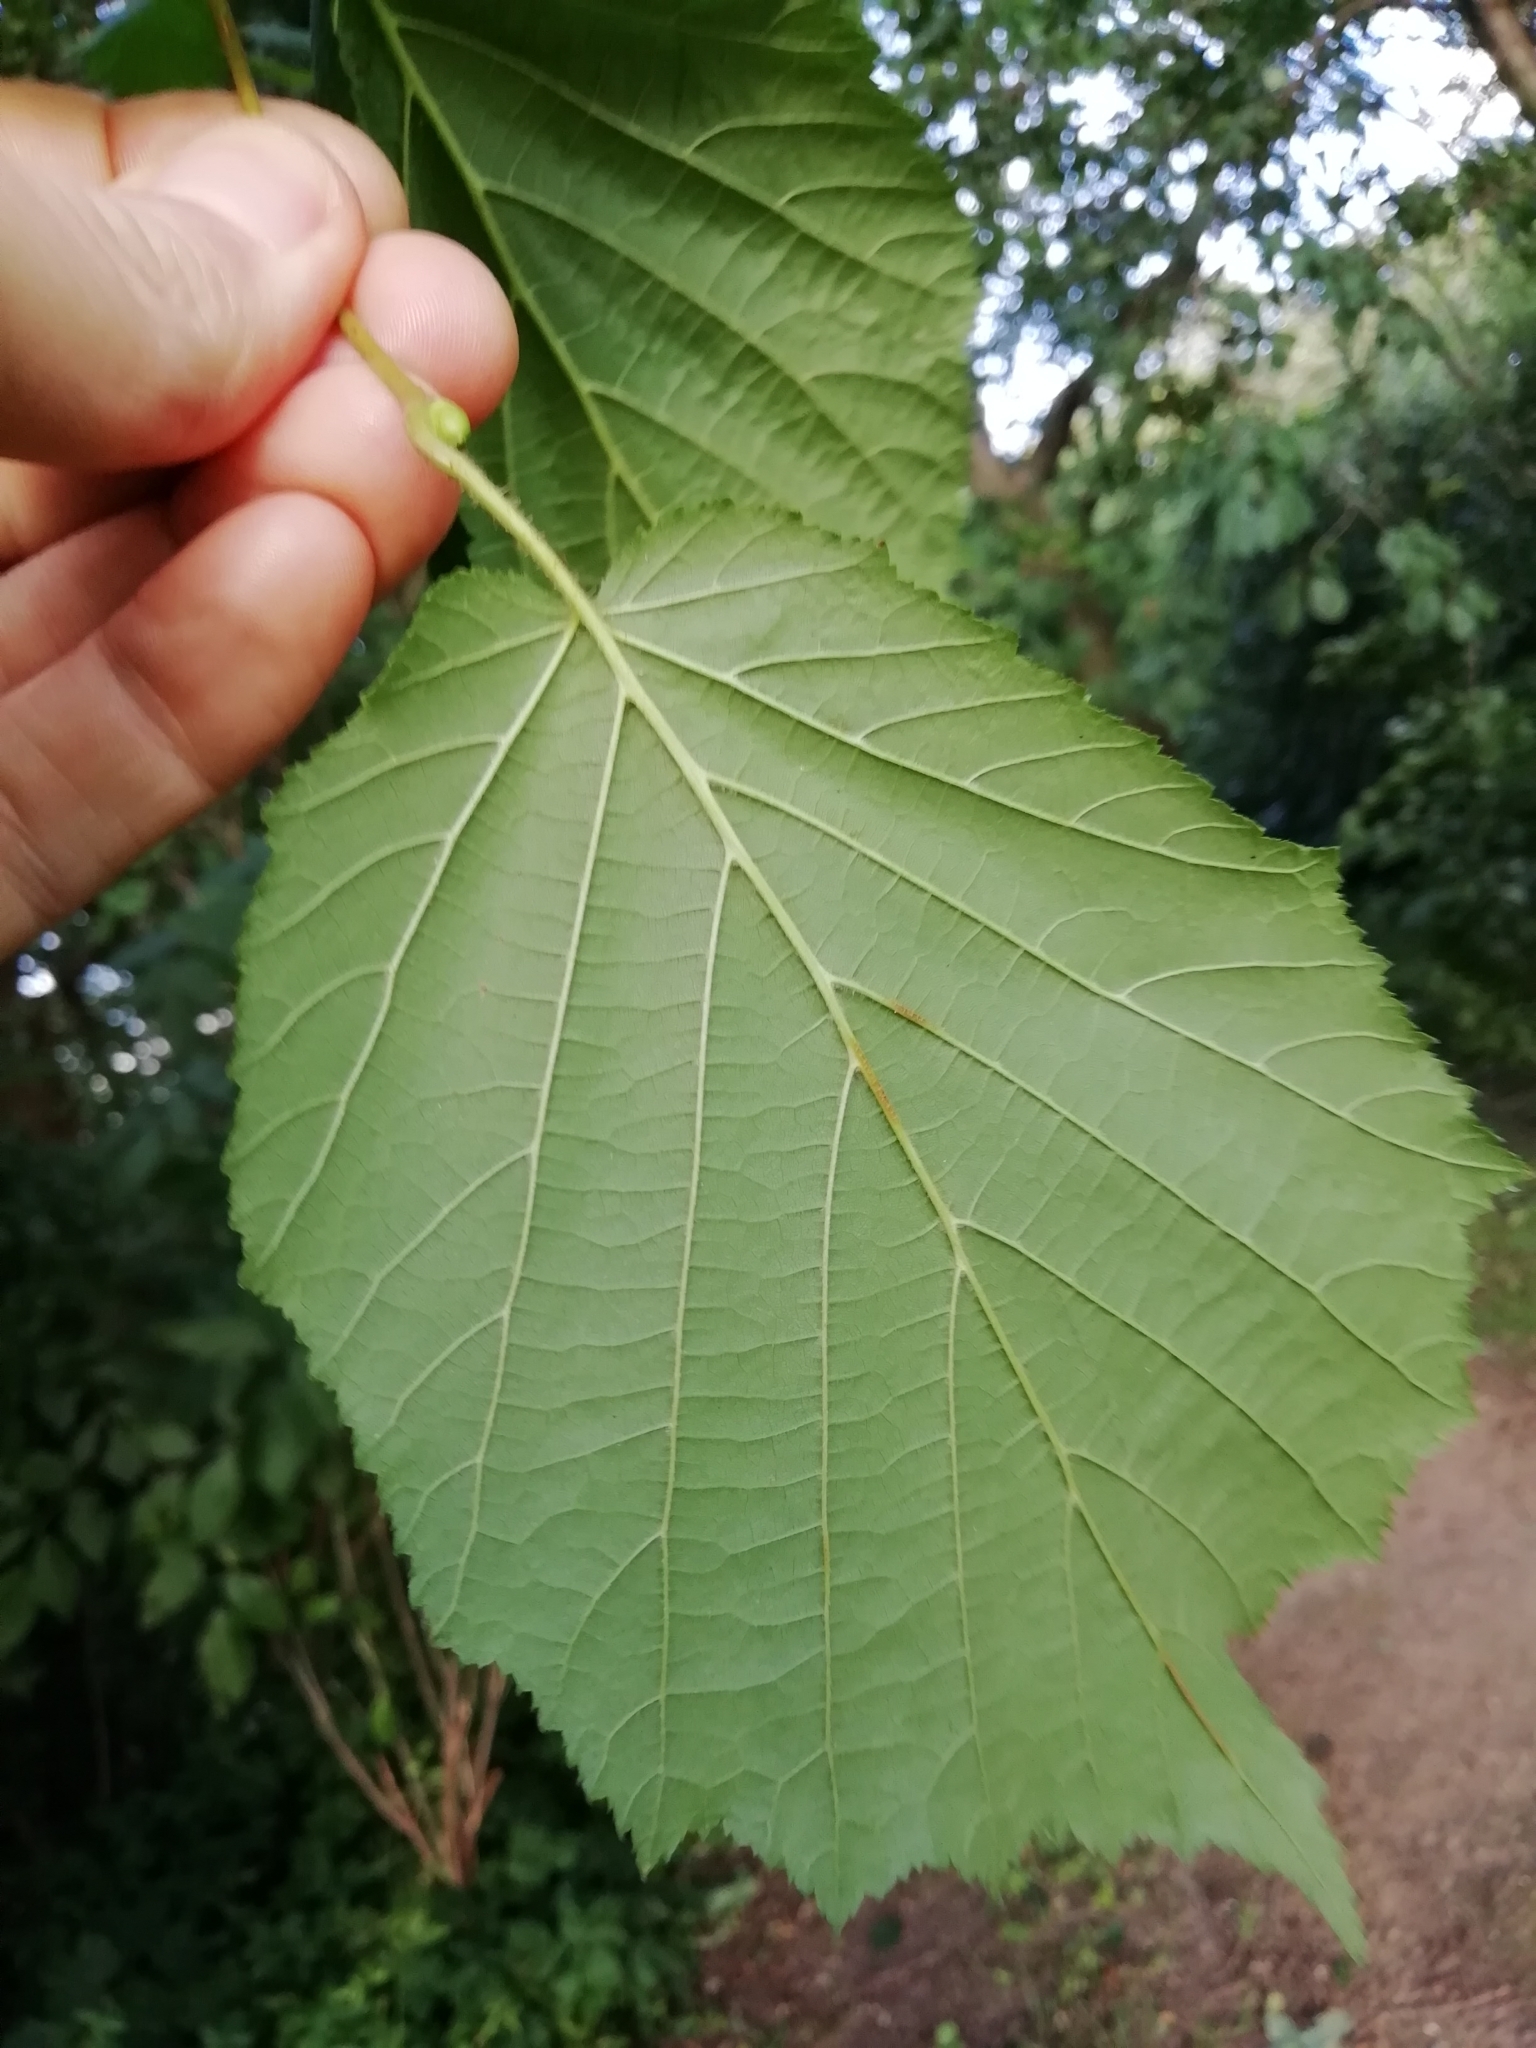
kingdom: Plantae
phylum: Tracheophyta
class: Magnoliopsida
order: Fagales
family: Betulaceae
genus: Corylus
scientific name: Corylus avellana
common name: European hazel
